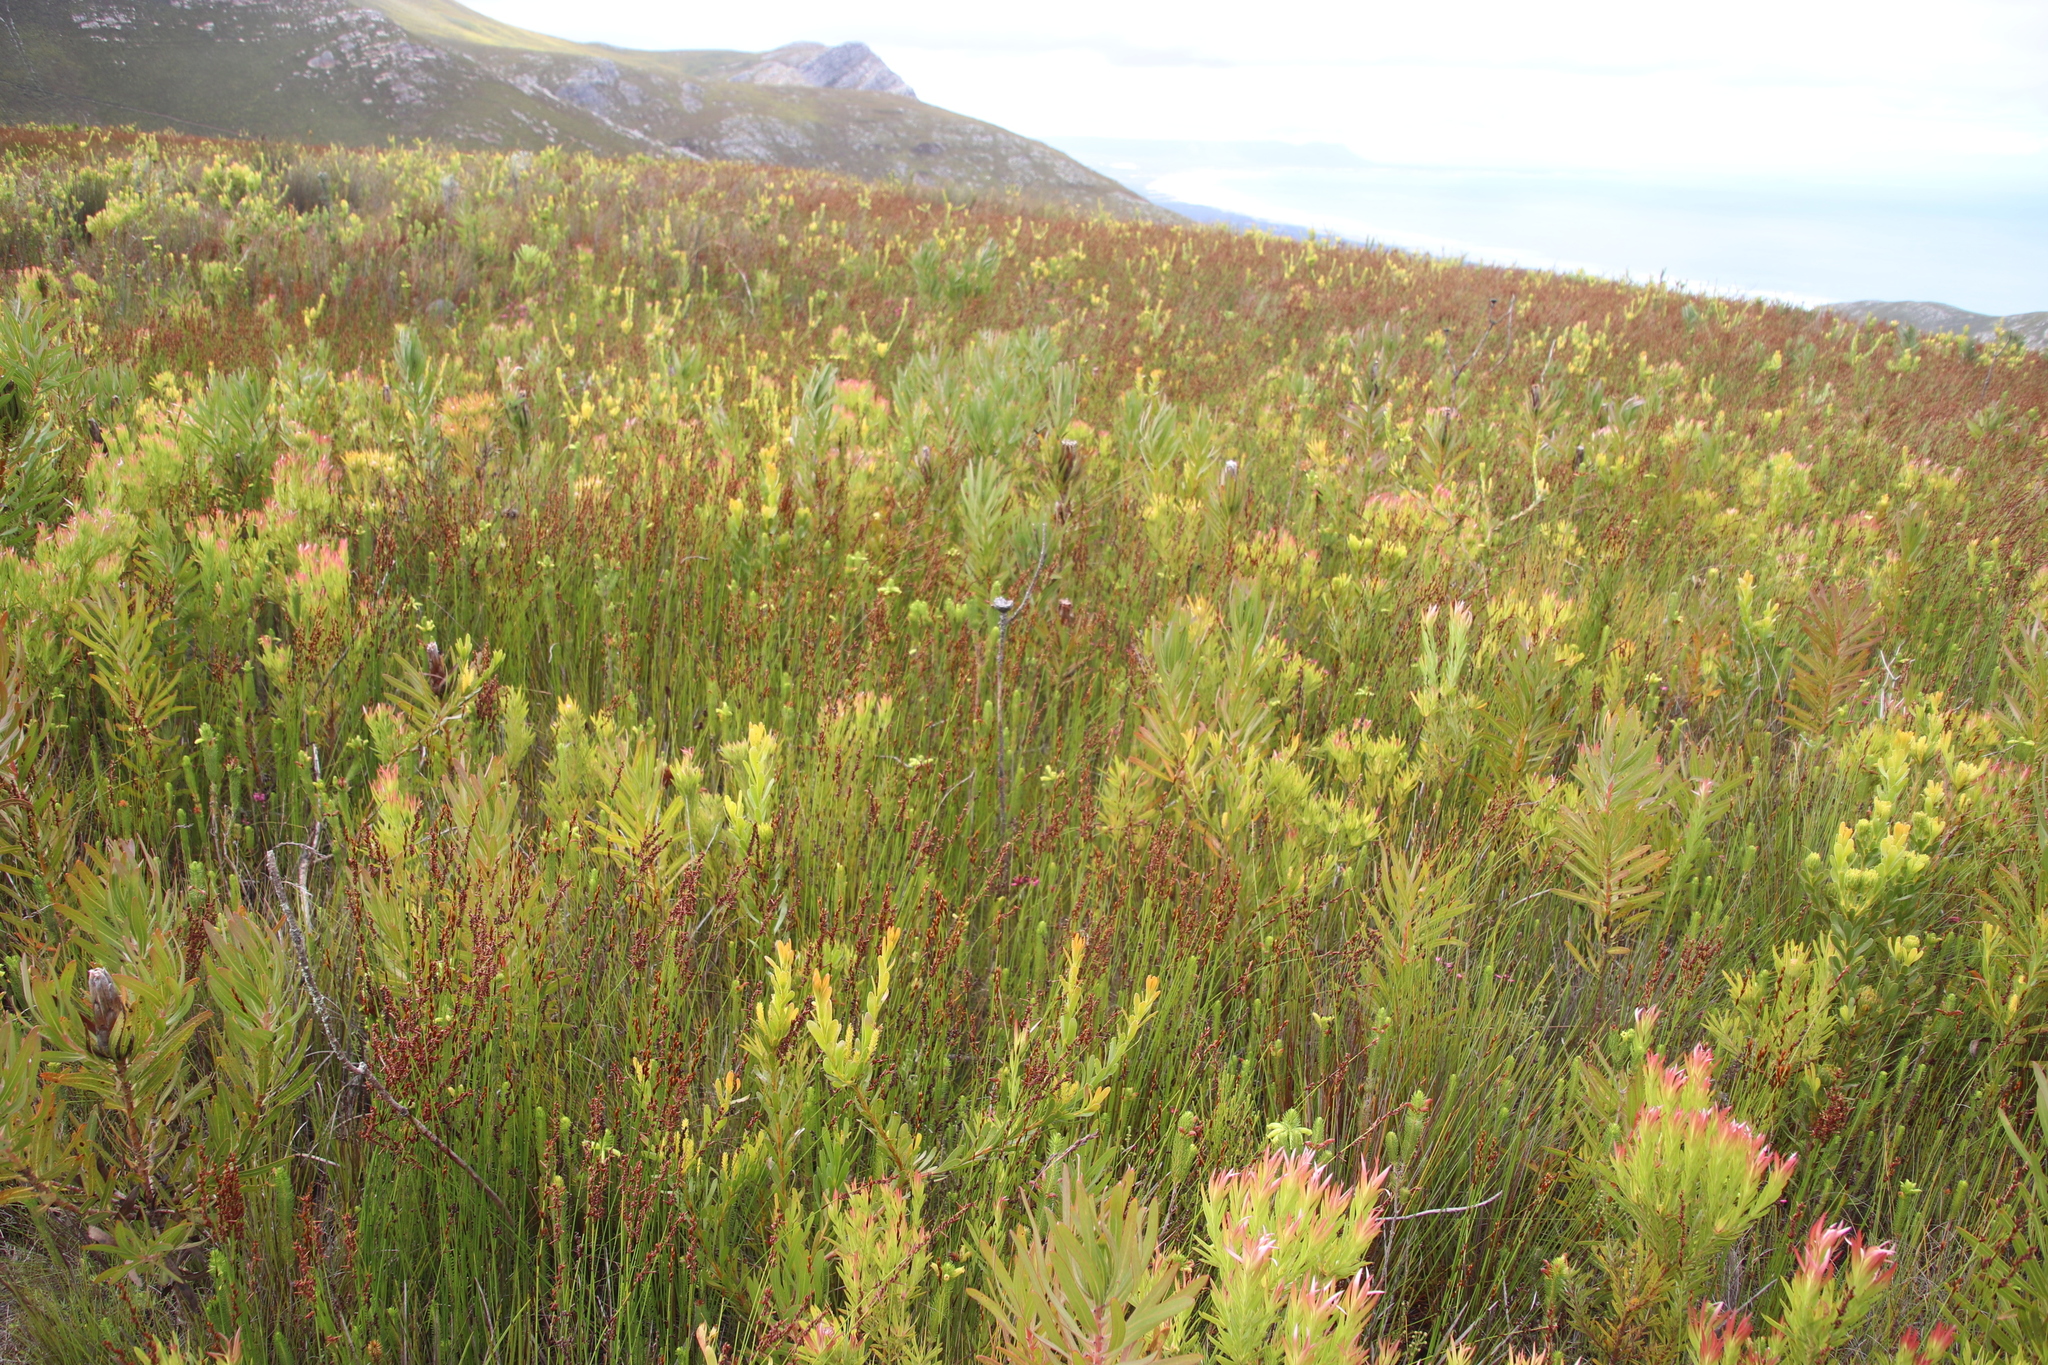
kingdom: Plantae
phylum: Tracheophyta
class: Magnoliopsida
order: Proteales
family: Proteaceae
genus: Leucadendron
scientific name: Leucadendron xanthoconus
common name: Sickle-leaf conebush
